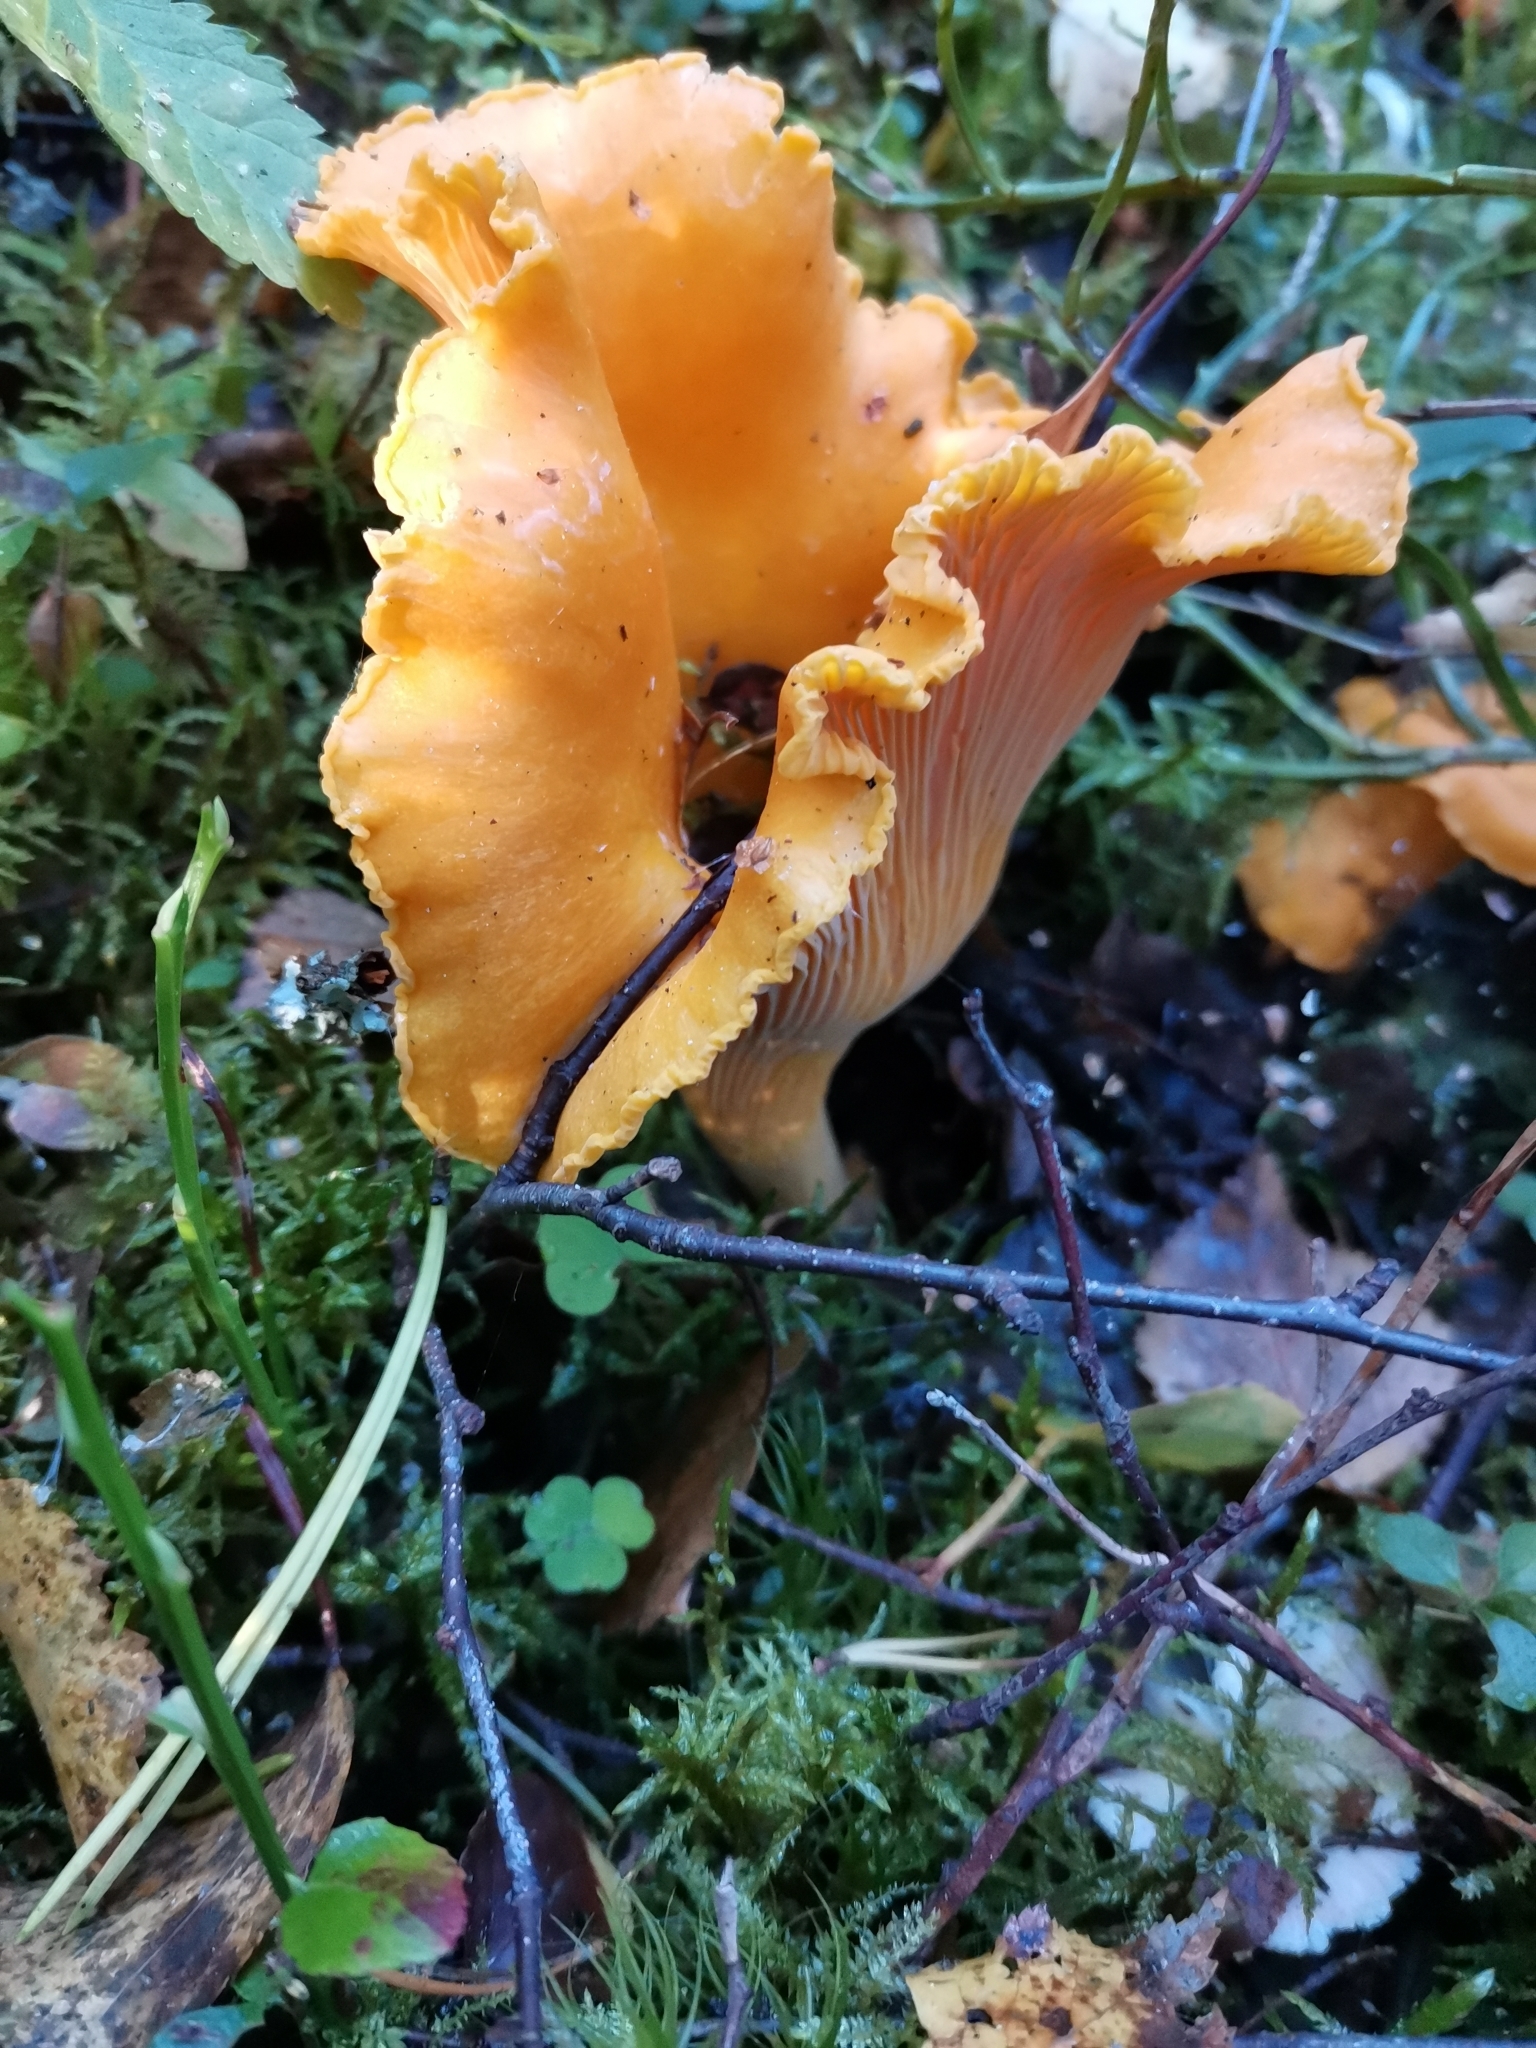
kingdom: Fungi
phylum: Basidiomycota
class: Agaricomycetes
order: Cantharellales
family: Hydnaceae
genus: Cantharellus
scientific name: Cantharellus cibarius
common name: Chanterelle
